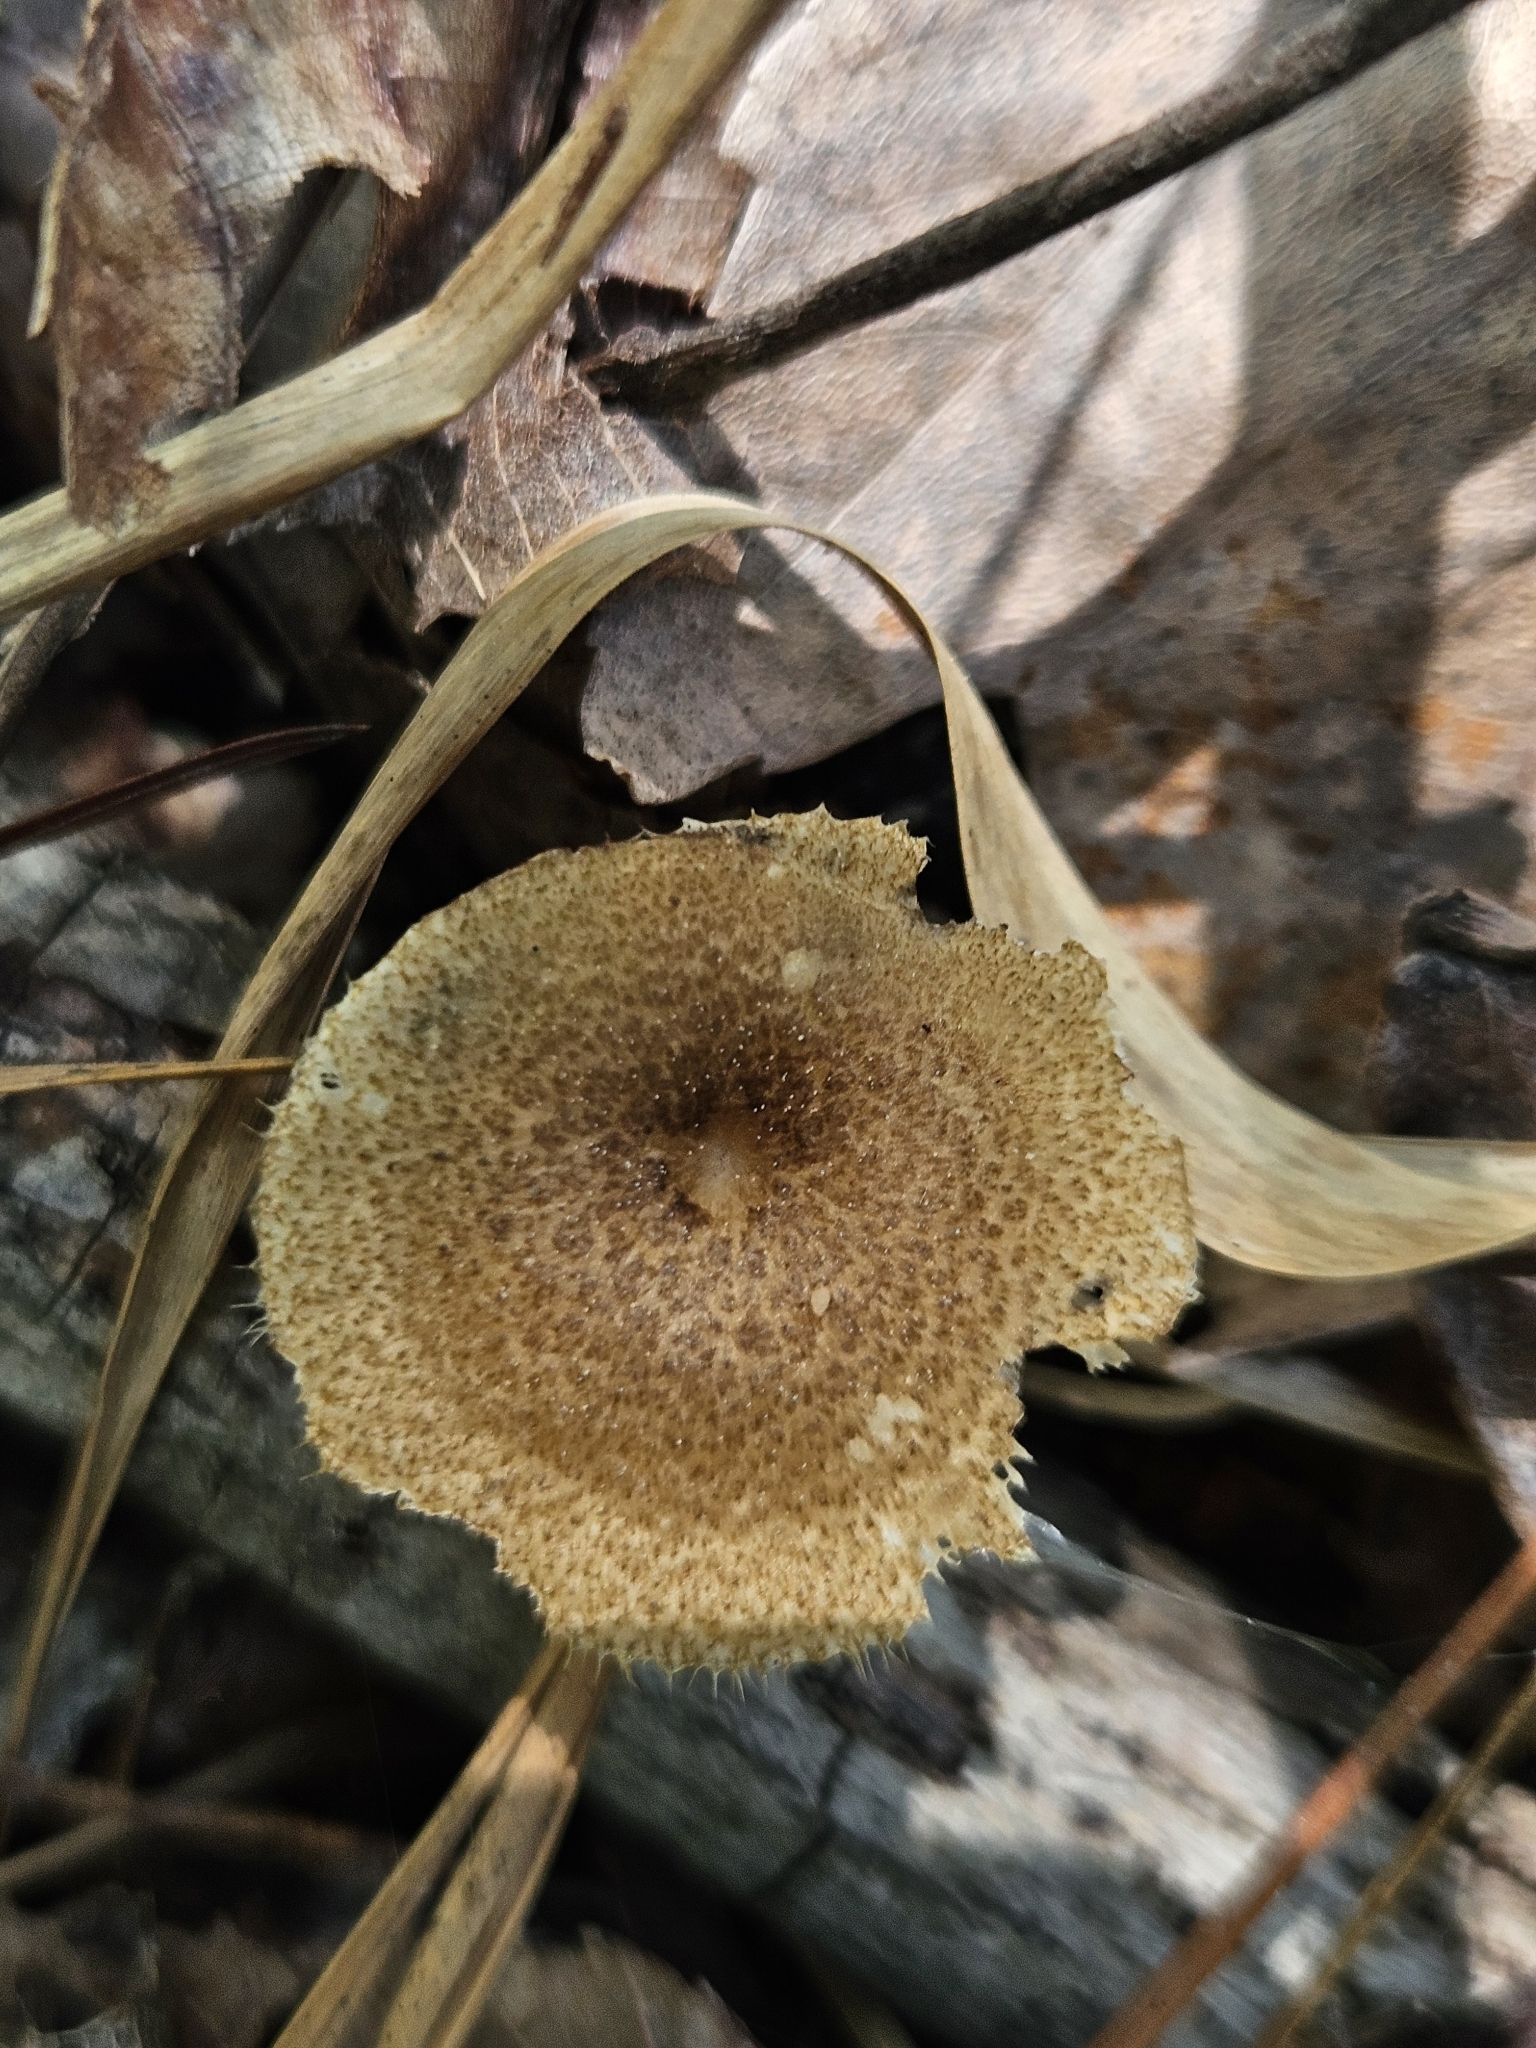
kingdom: Fungi
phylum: Basidiomycota
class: Agaricomycetes
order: Polyporales
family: Polyporaceae
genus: Lentinus
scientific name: Lentinus arcularius
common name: Spring polypore
